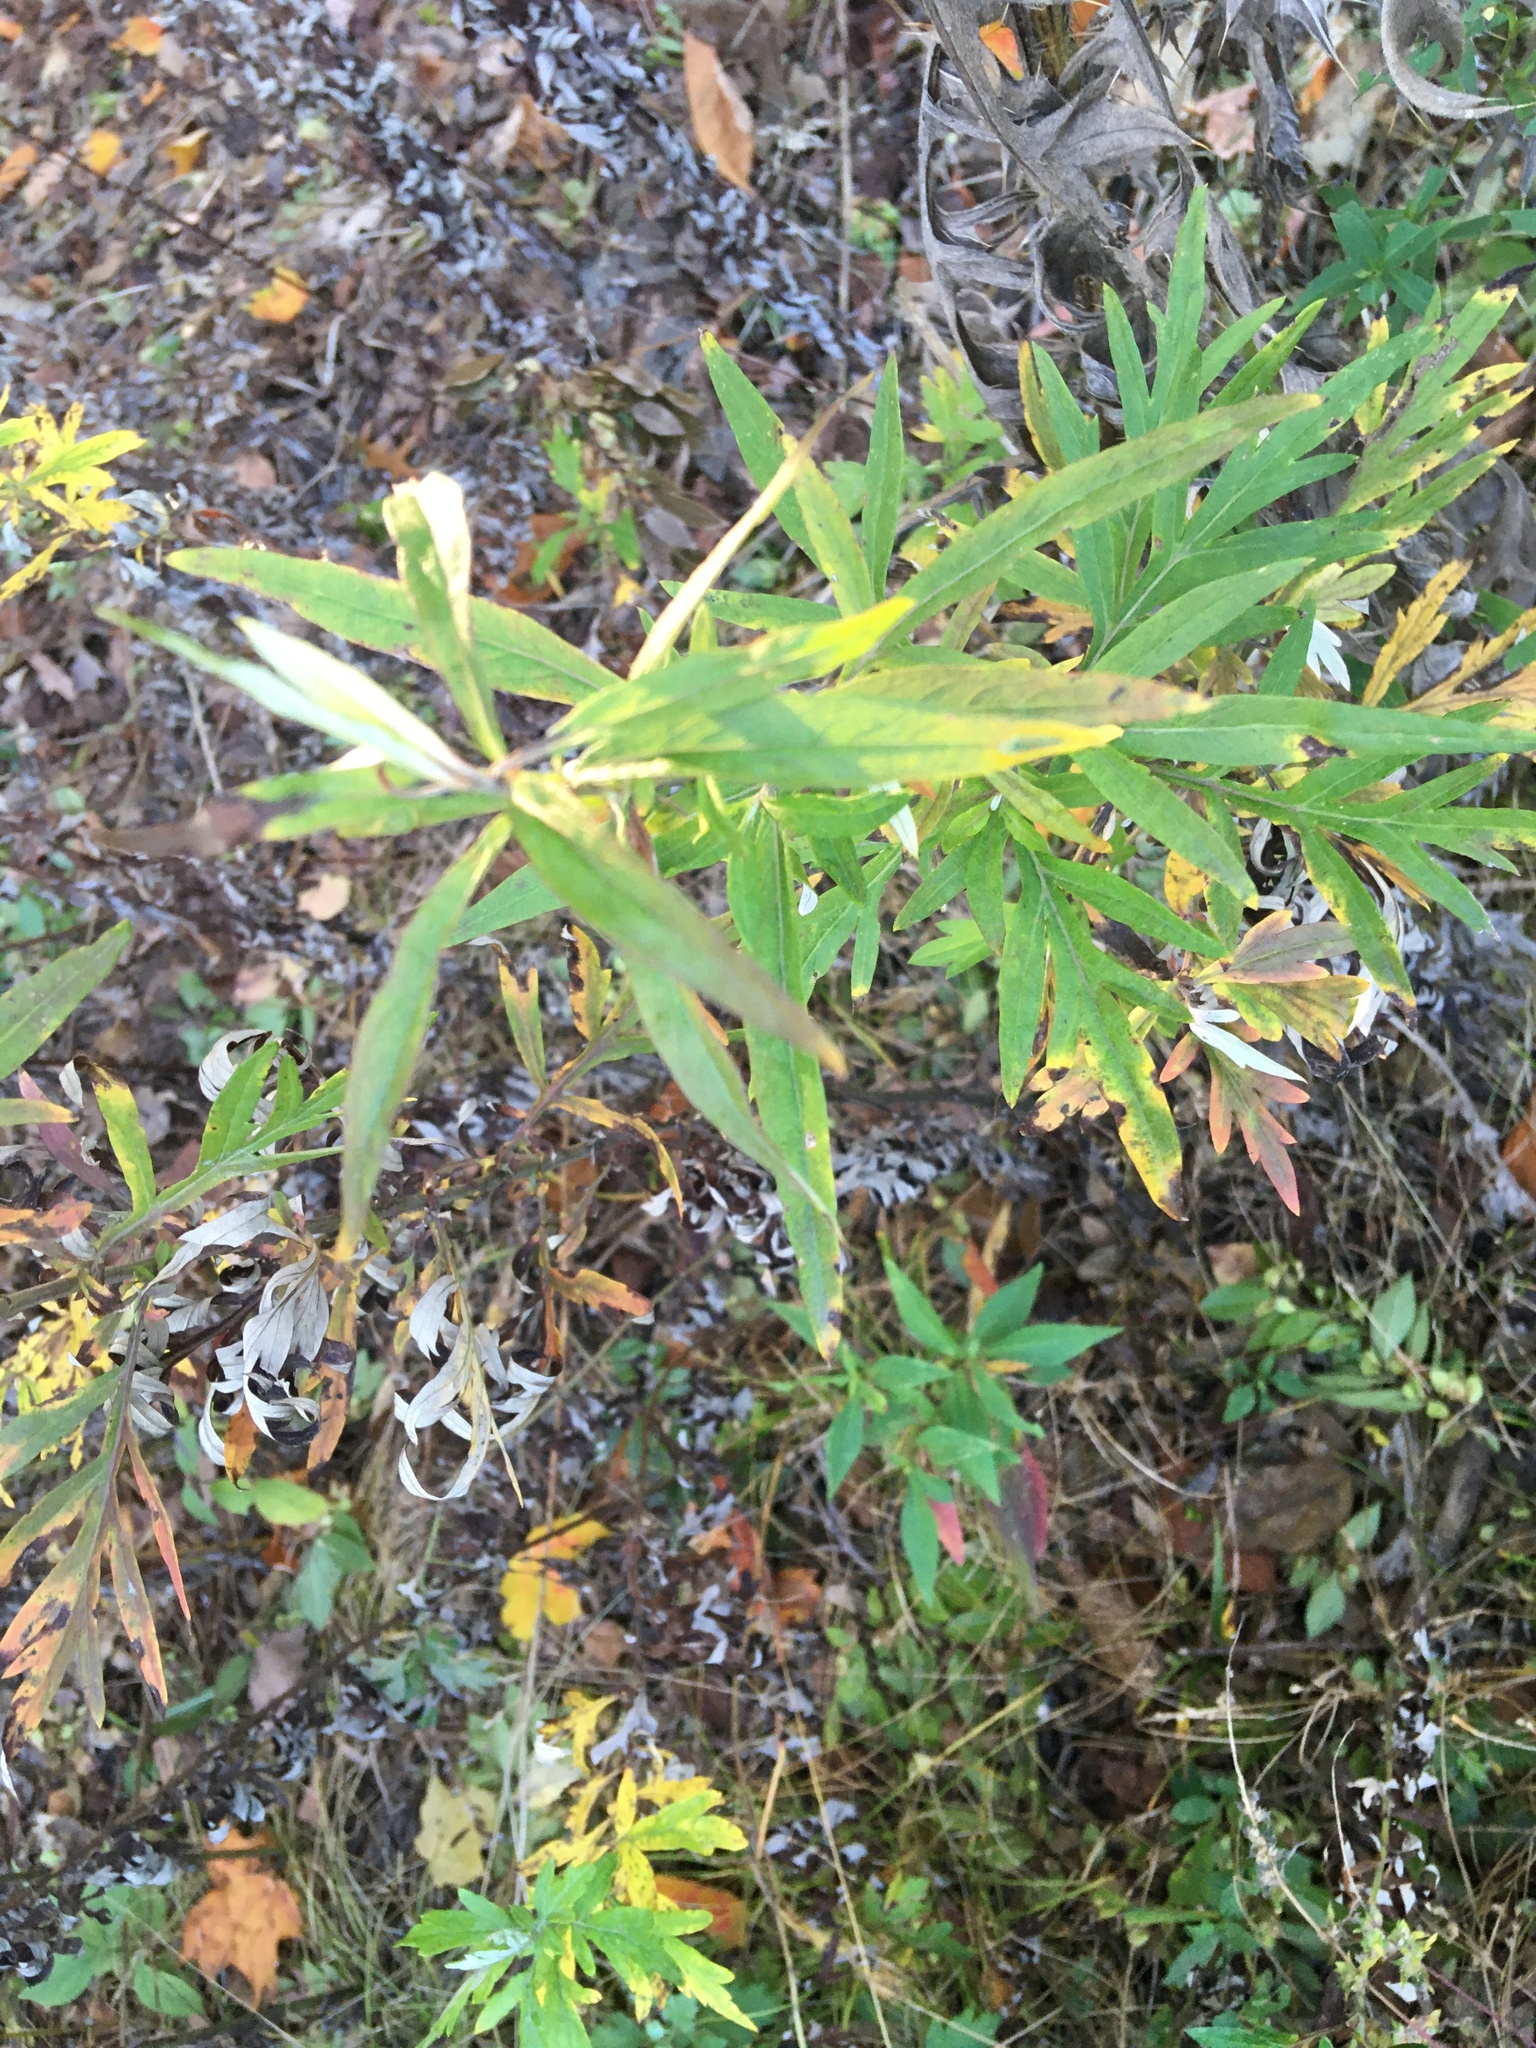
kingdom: Plantae
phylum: Tracheophyta
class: Magnoliopsida
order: Asterales
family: Asteraceae
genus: Artemisia
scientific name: Artemisia vulgaris
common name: Mugwort
